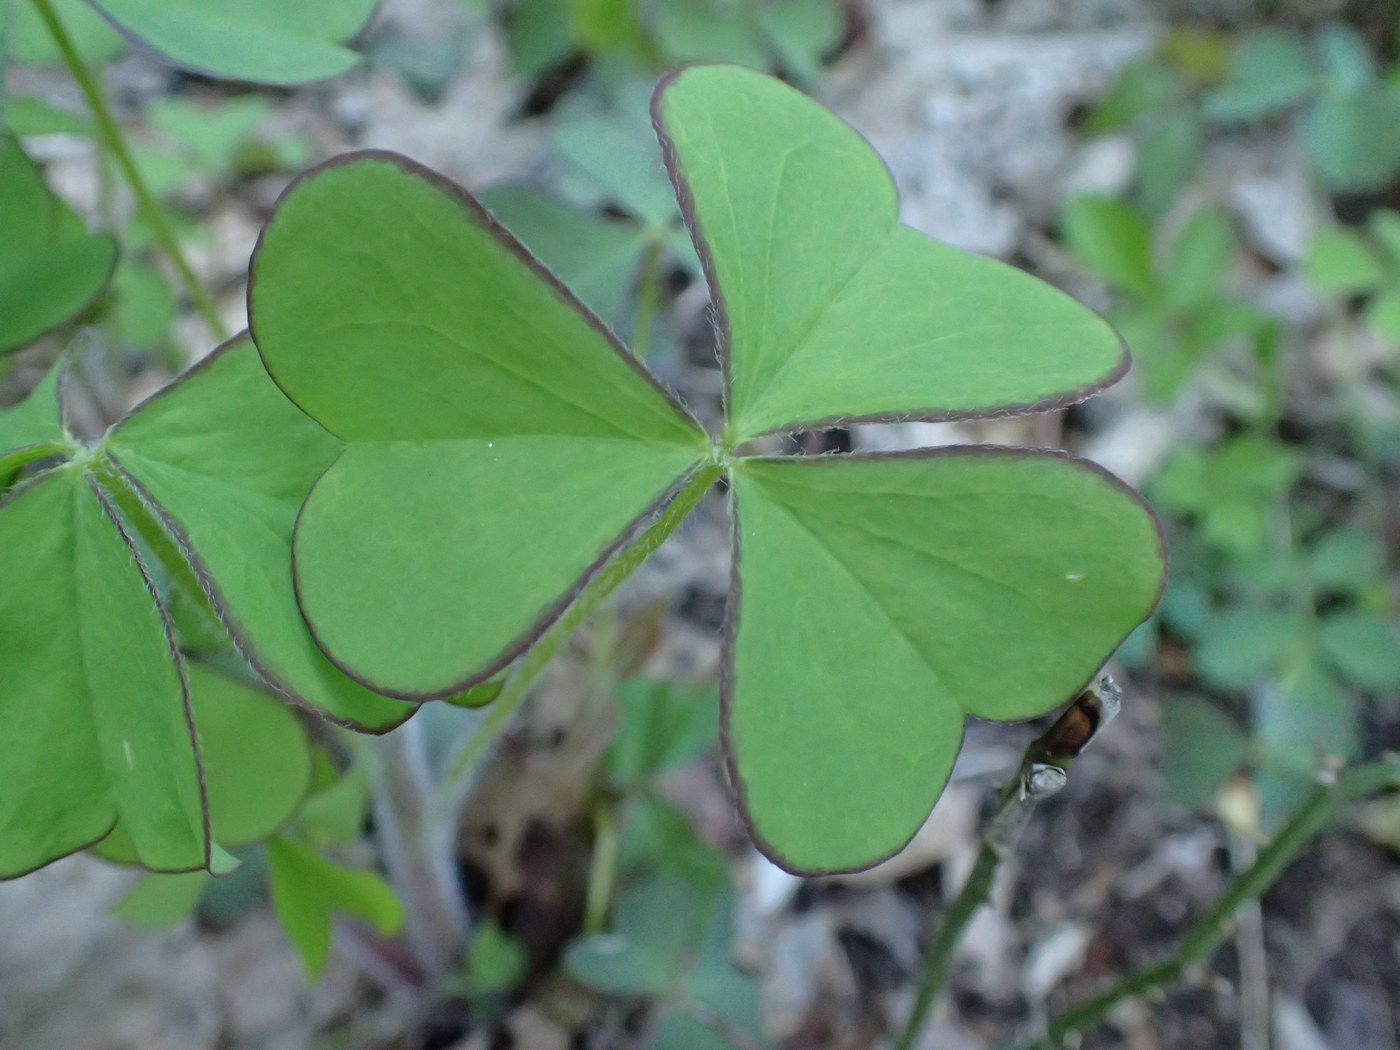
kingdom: Plantae
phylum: Tracheophyta
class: Magnoliopsida
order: Oxalidales
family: Oxalidaceae
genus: Oxalis
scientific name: Oxalis grandis
